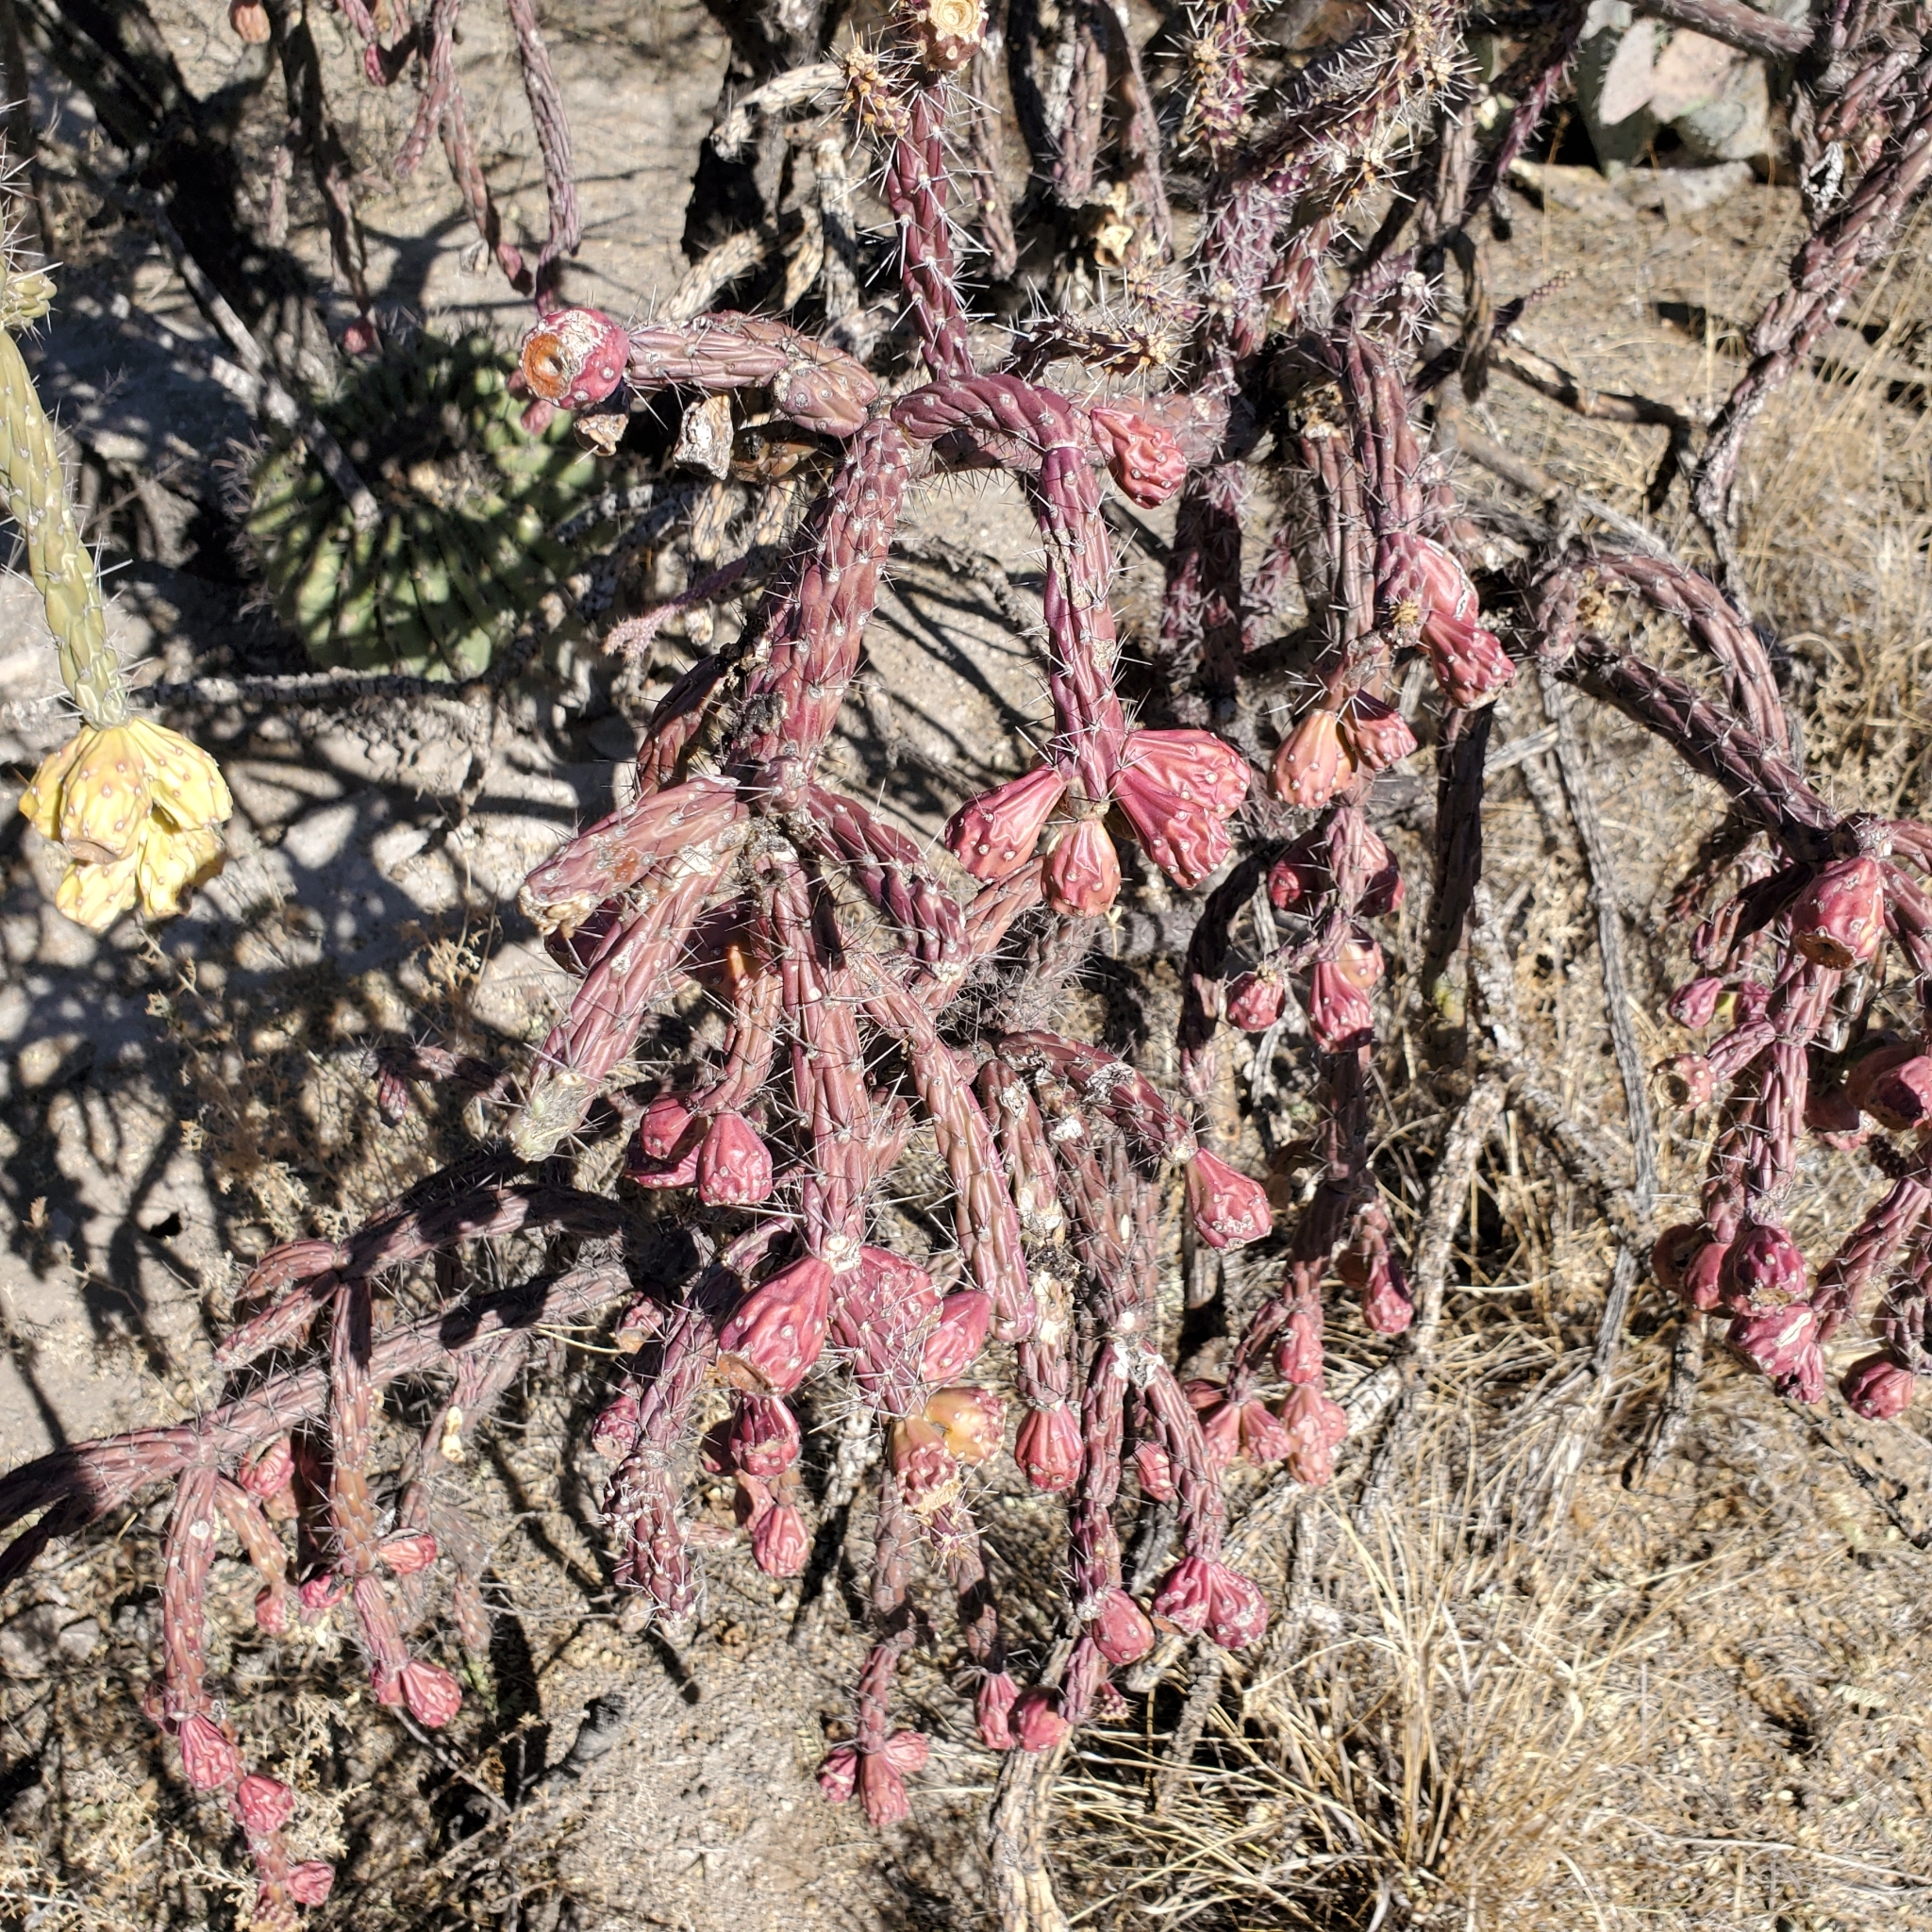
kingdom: Plantae
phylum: Tracheophyta
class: Magnoliopsida
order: Caryophyllales
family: Cactaceae
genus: Cylindropuntia
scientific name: Cylindropuntia thurberi
